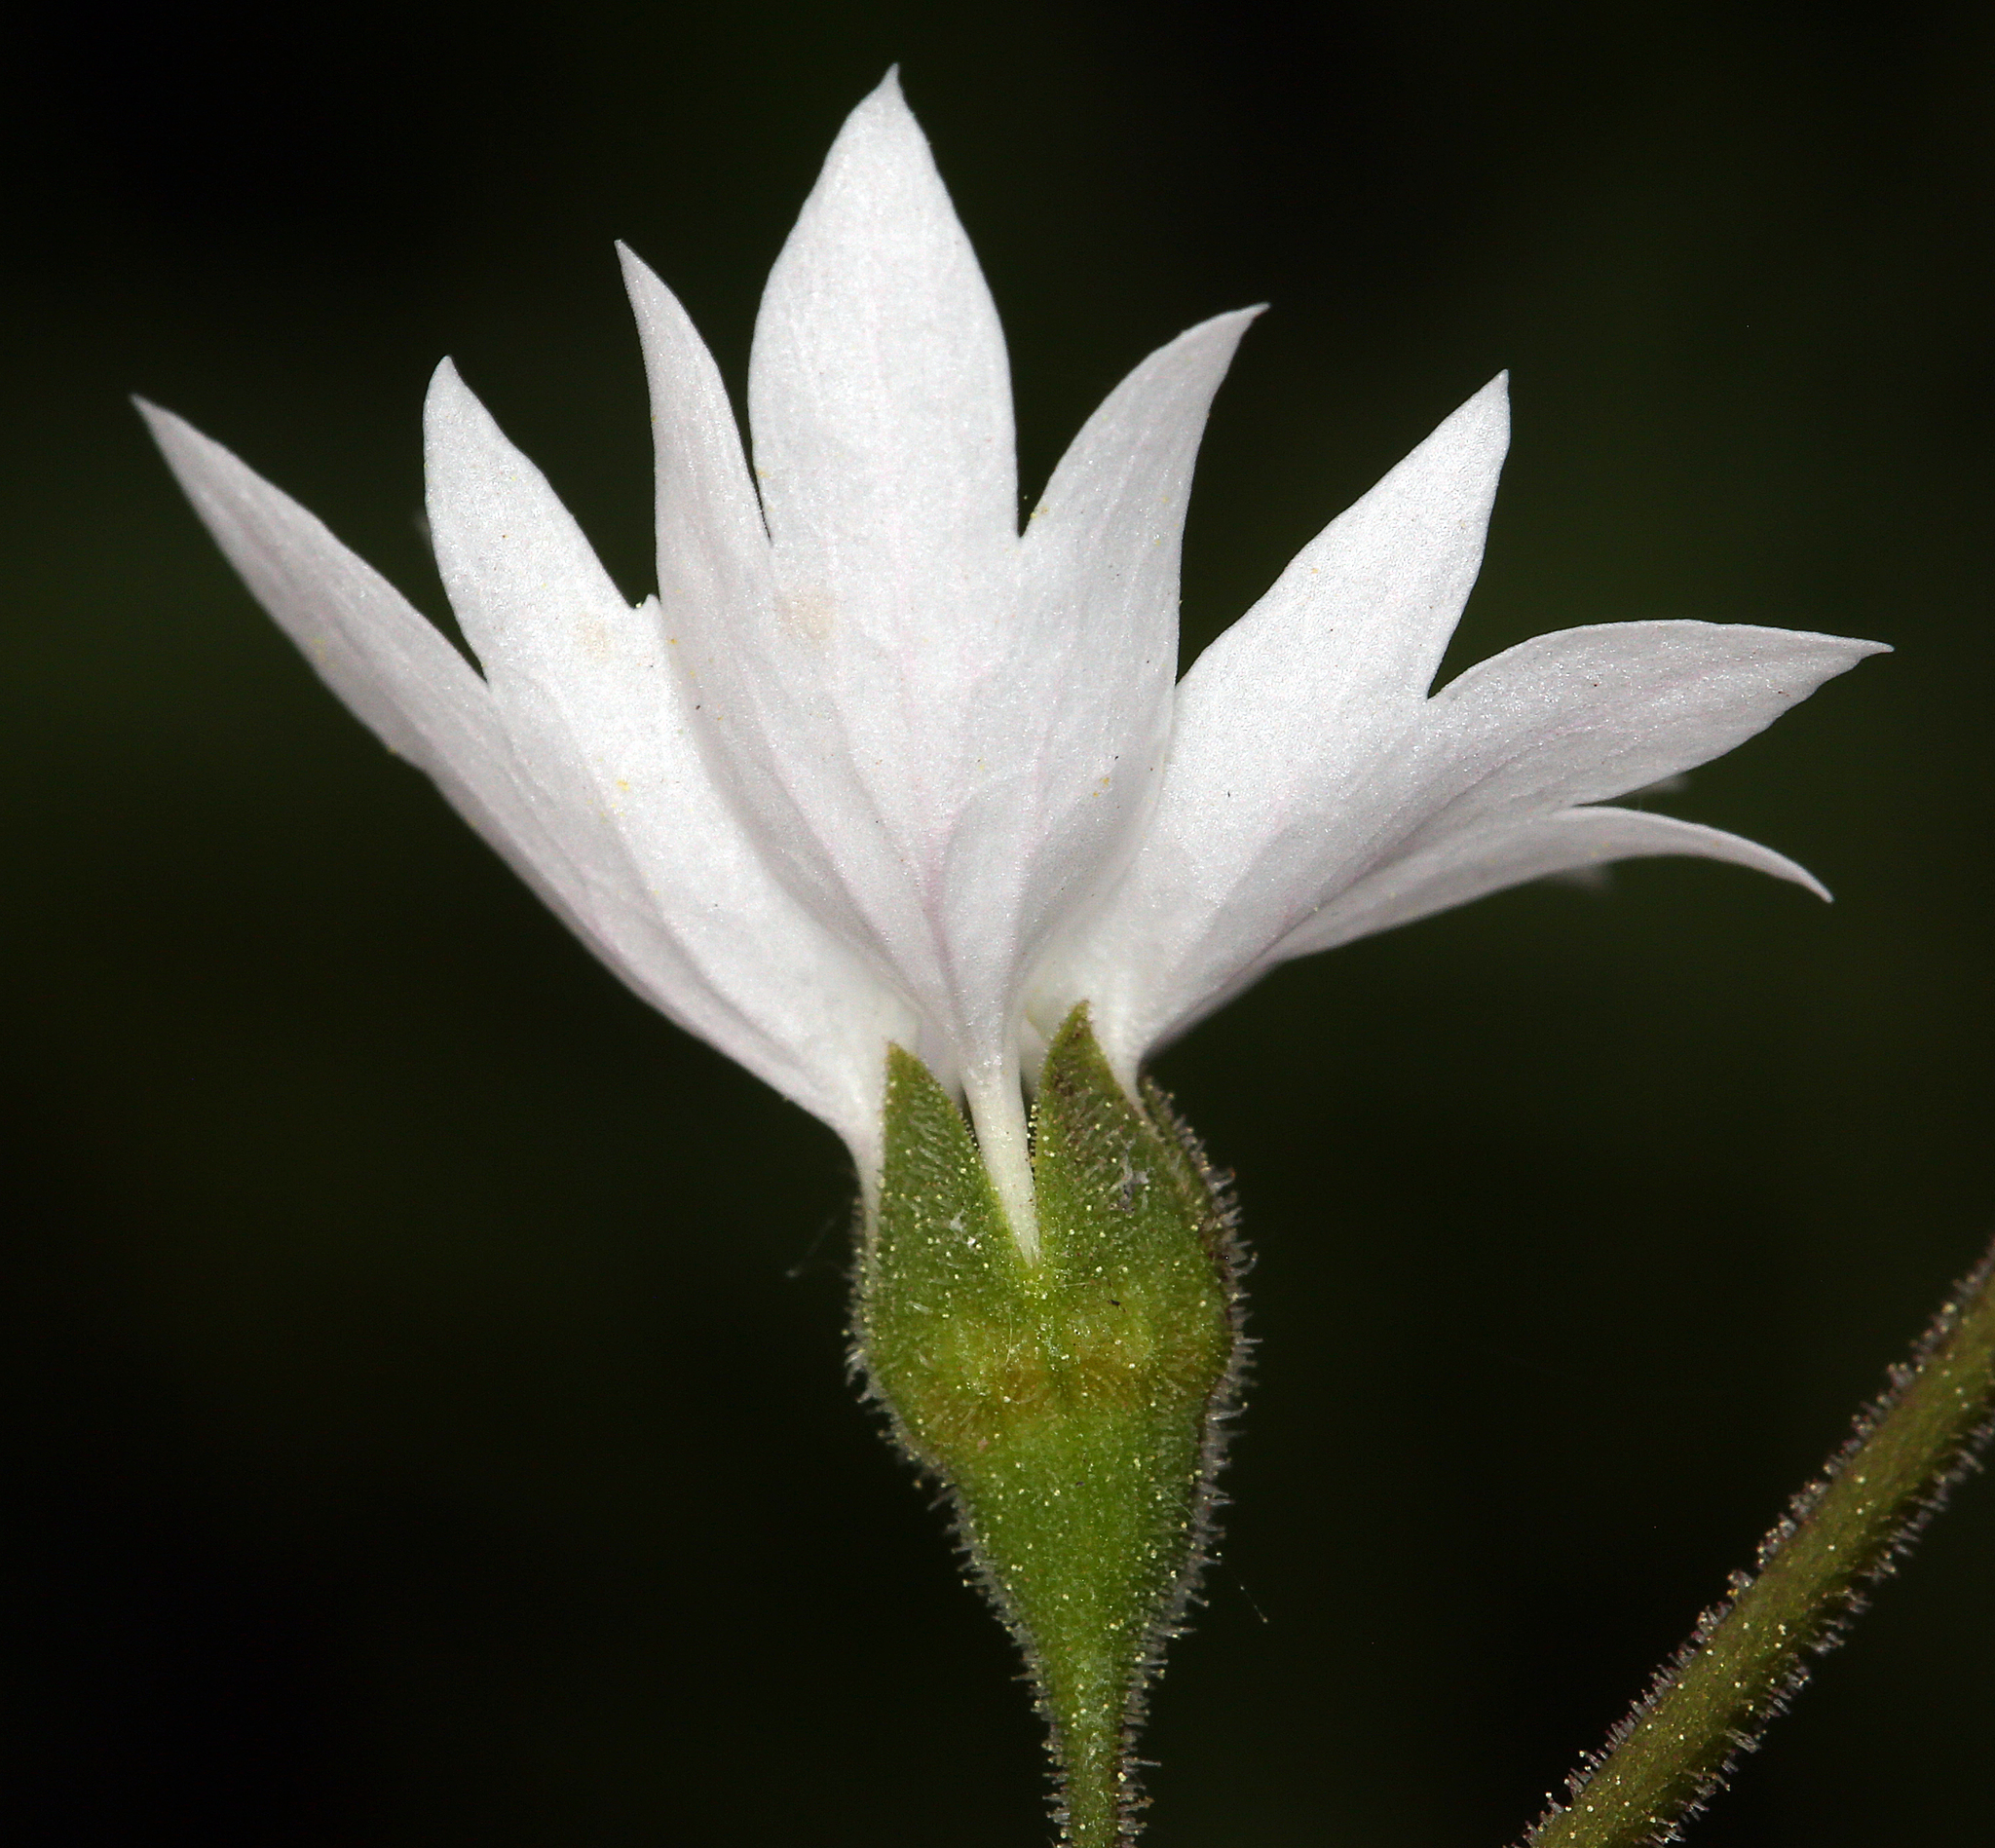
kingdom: Plantae
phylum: Tracheophyta
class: Magnoliopsida
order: Saxifragales
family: Saxifragaceae
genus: Lithophragma
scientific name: Lithophragma affine
